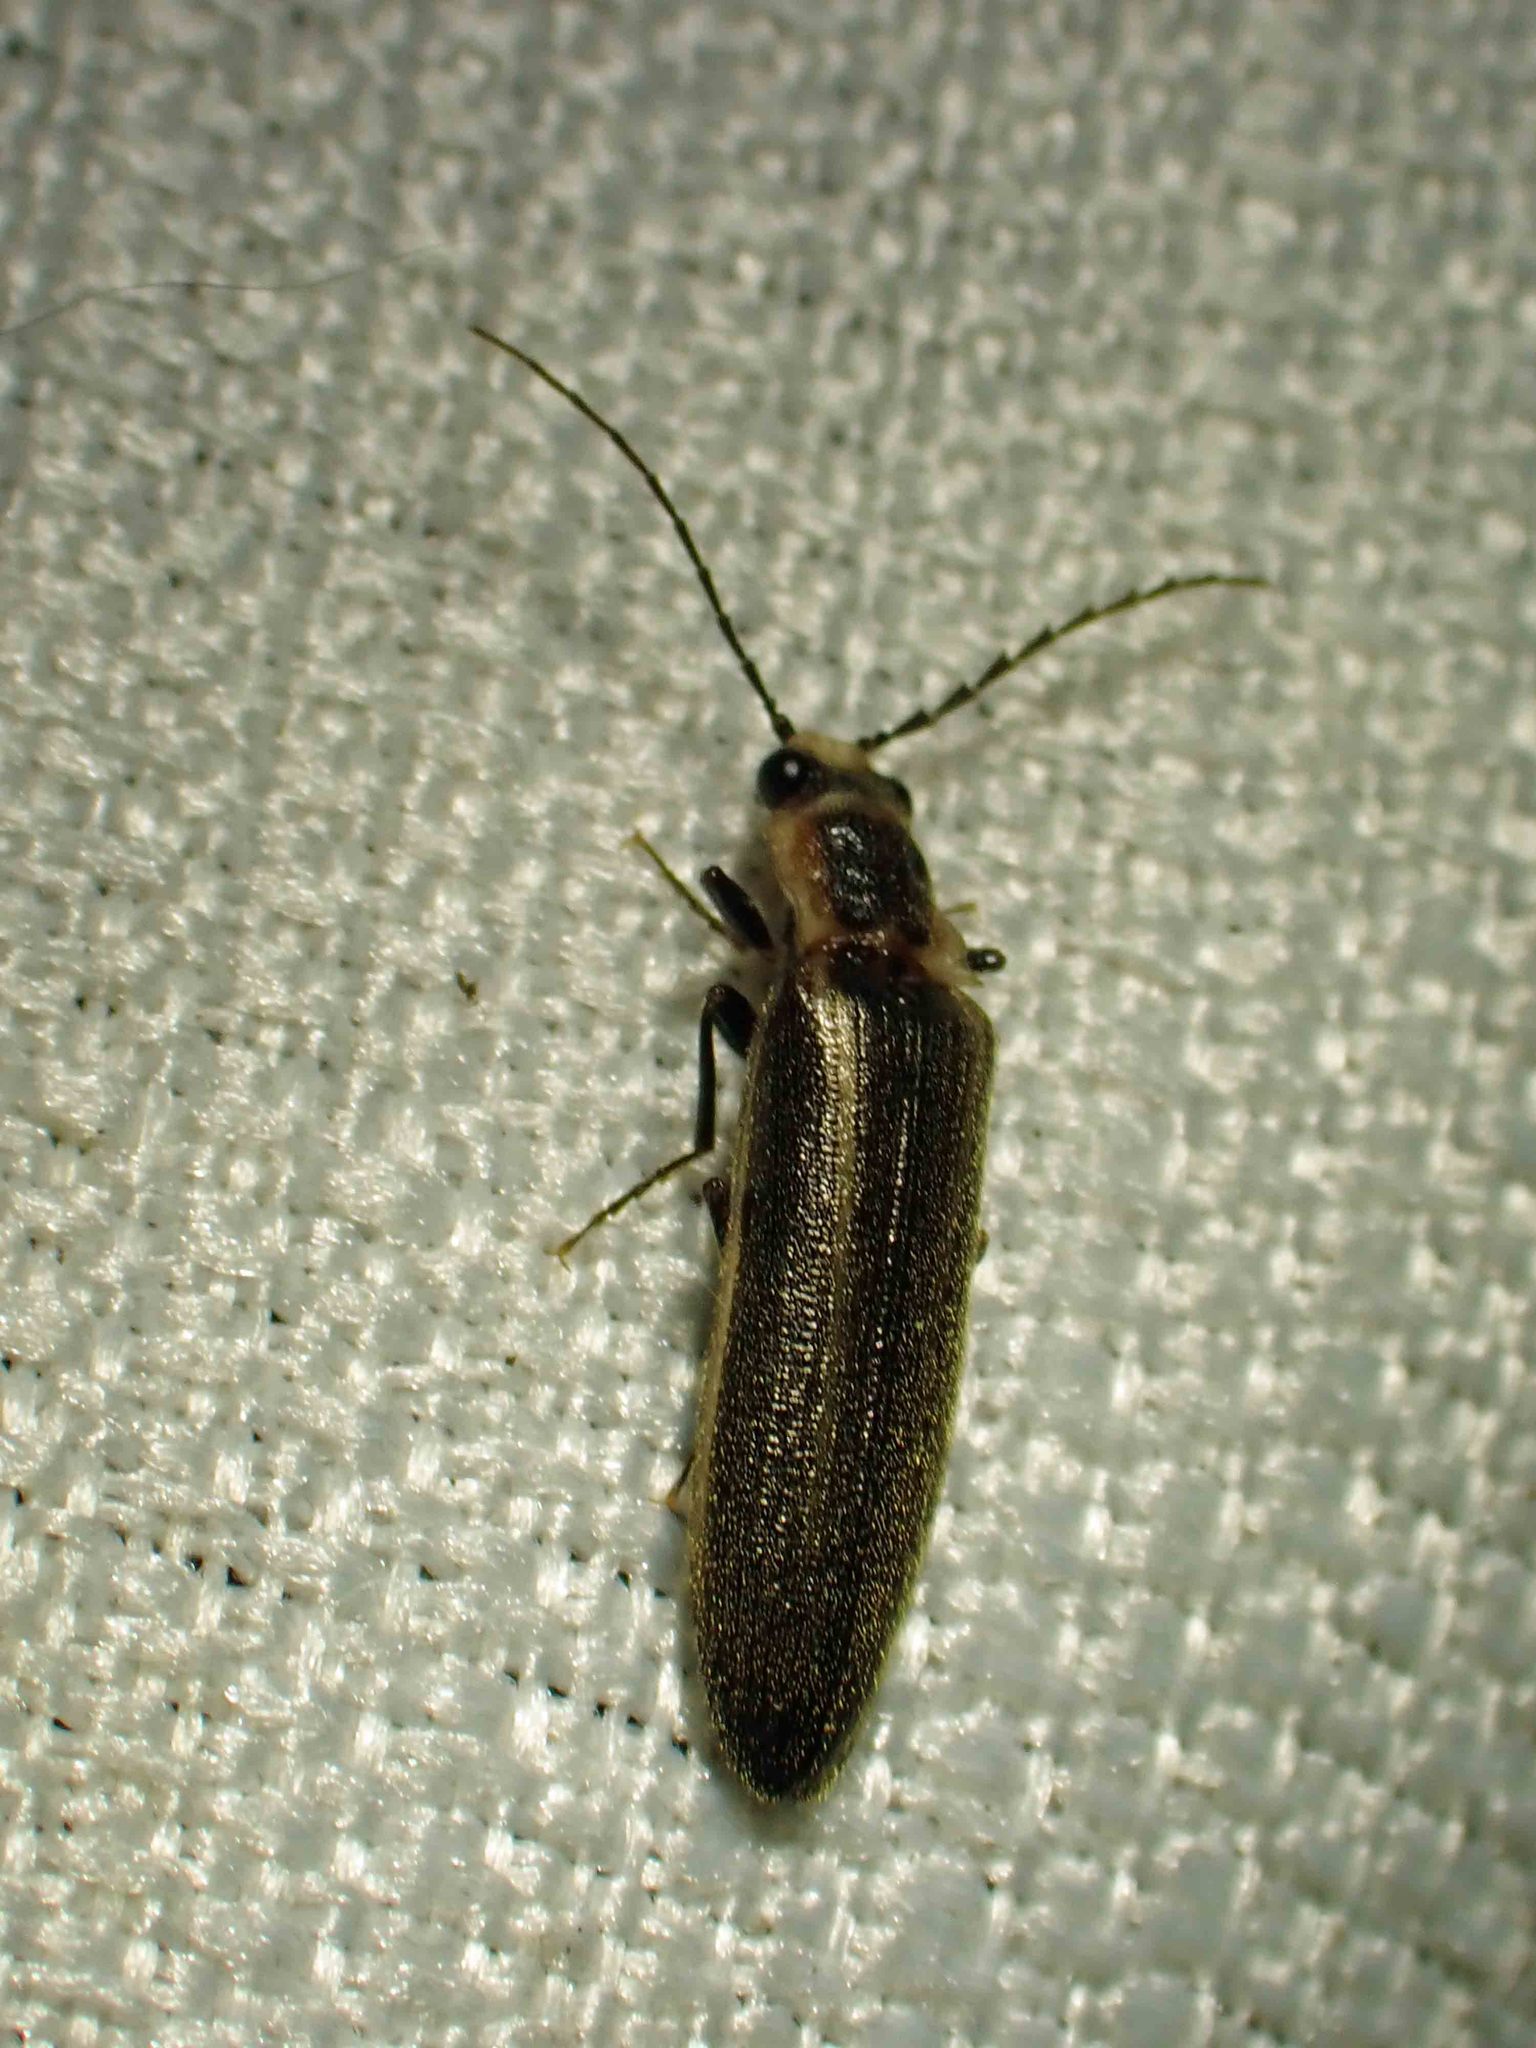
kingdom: Animalia
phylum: Arthropoda
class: Insecta
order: Coleoptera
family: Elateridae
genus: Denticollis
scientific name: Denticollis denticornis
